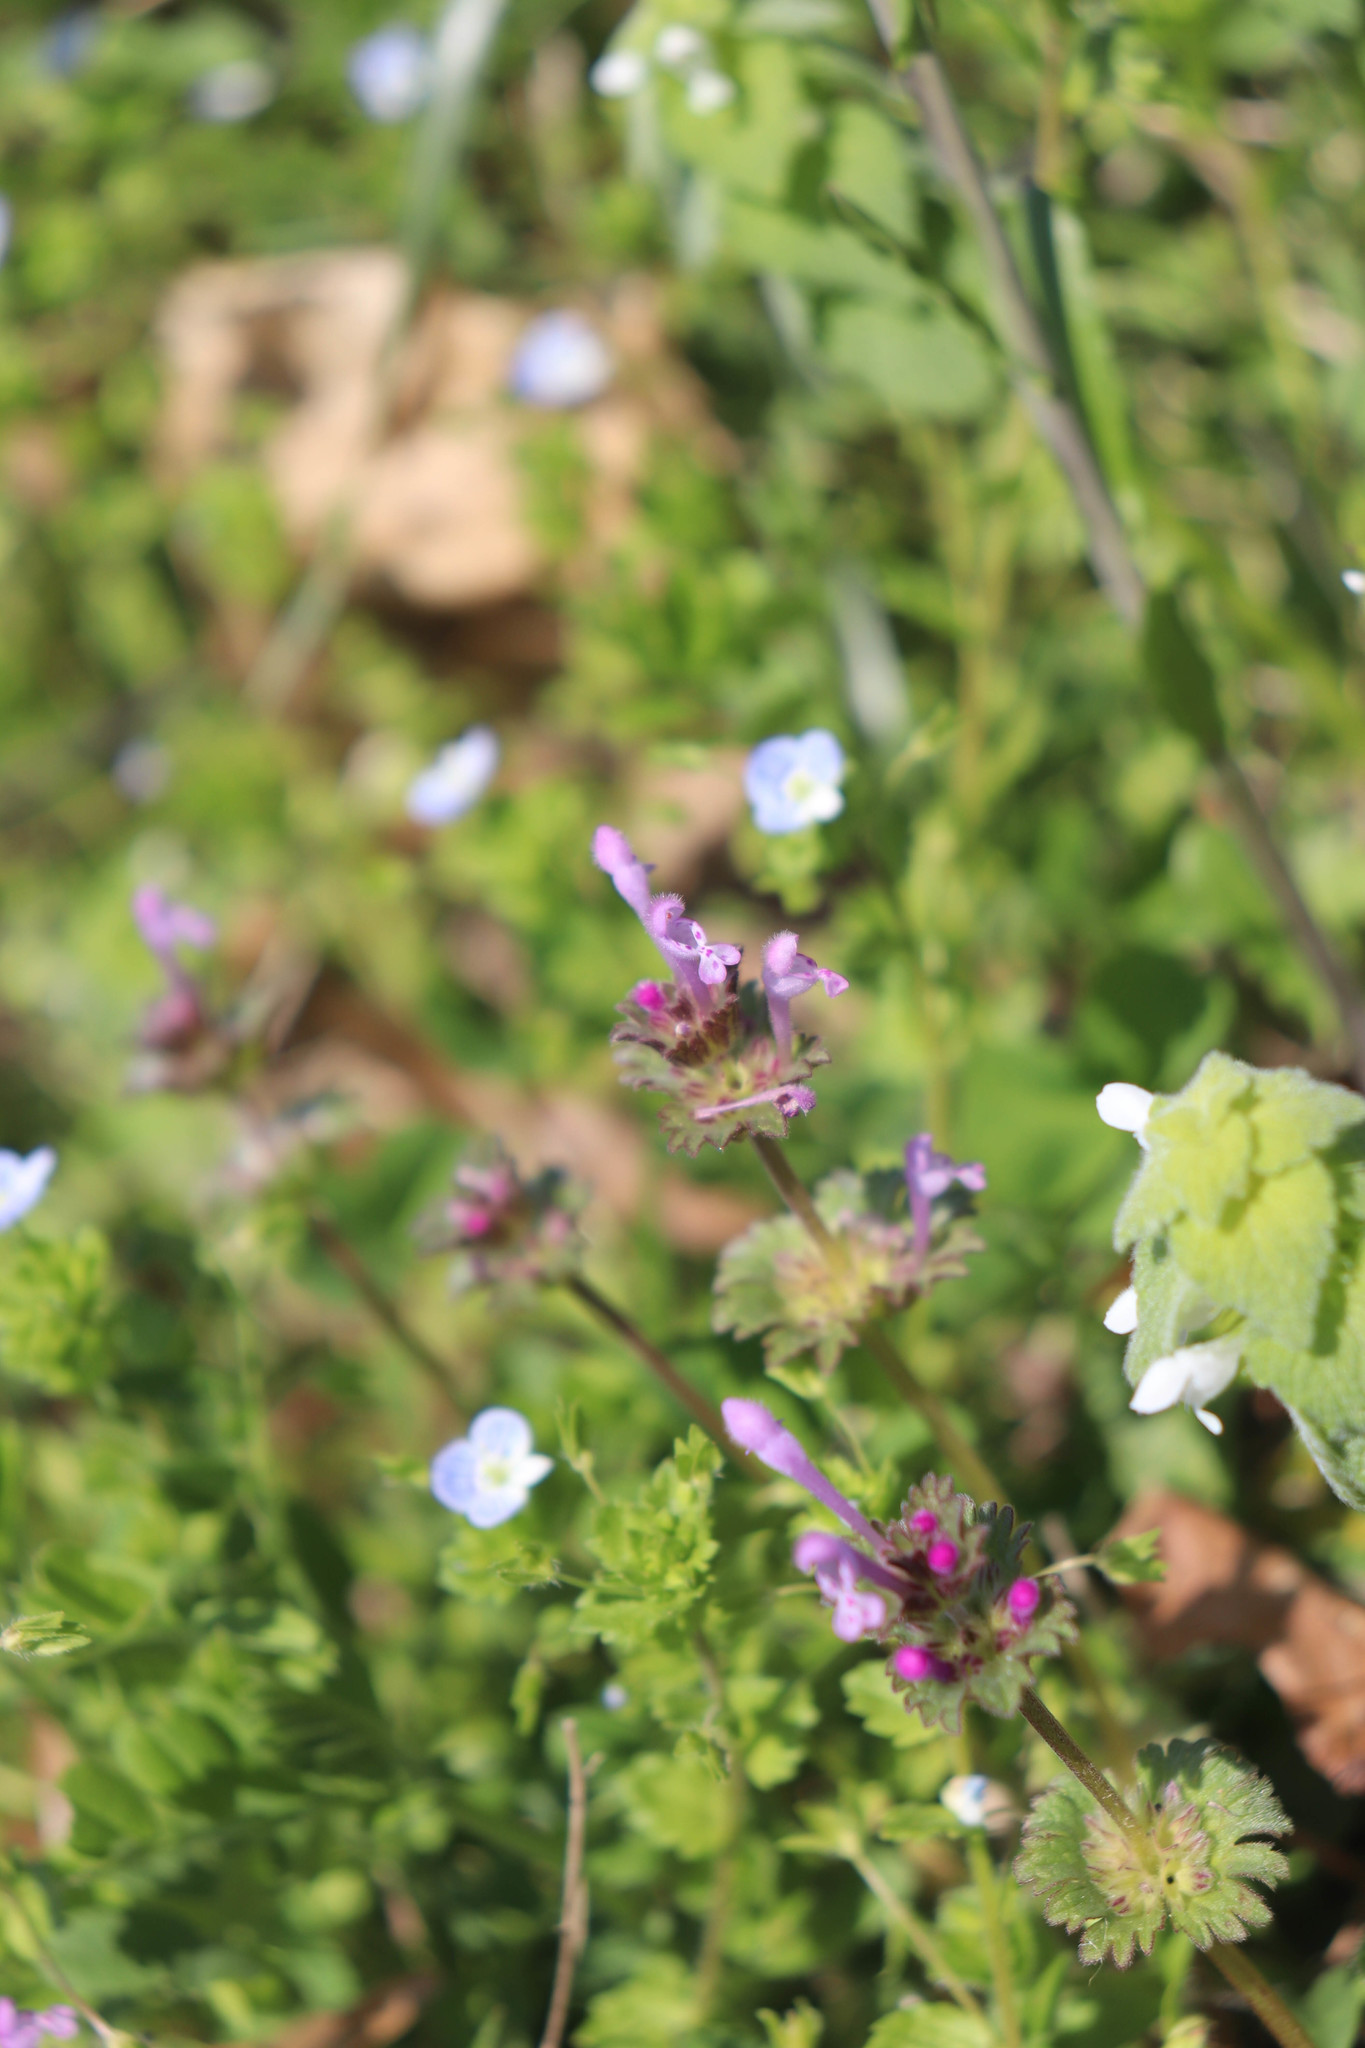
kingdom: Plantae
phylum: Tracheophyta
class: Magnoliopsida
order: Lamiales
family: Lamiaceae
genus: Lamium
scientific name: Lamium purpureum
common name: Red dead-nettle
